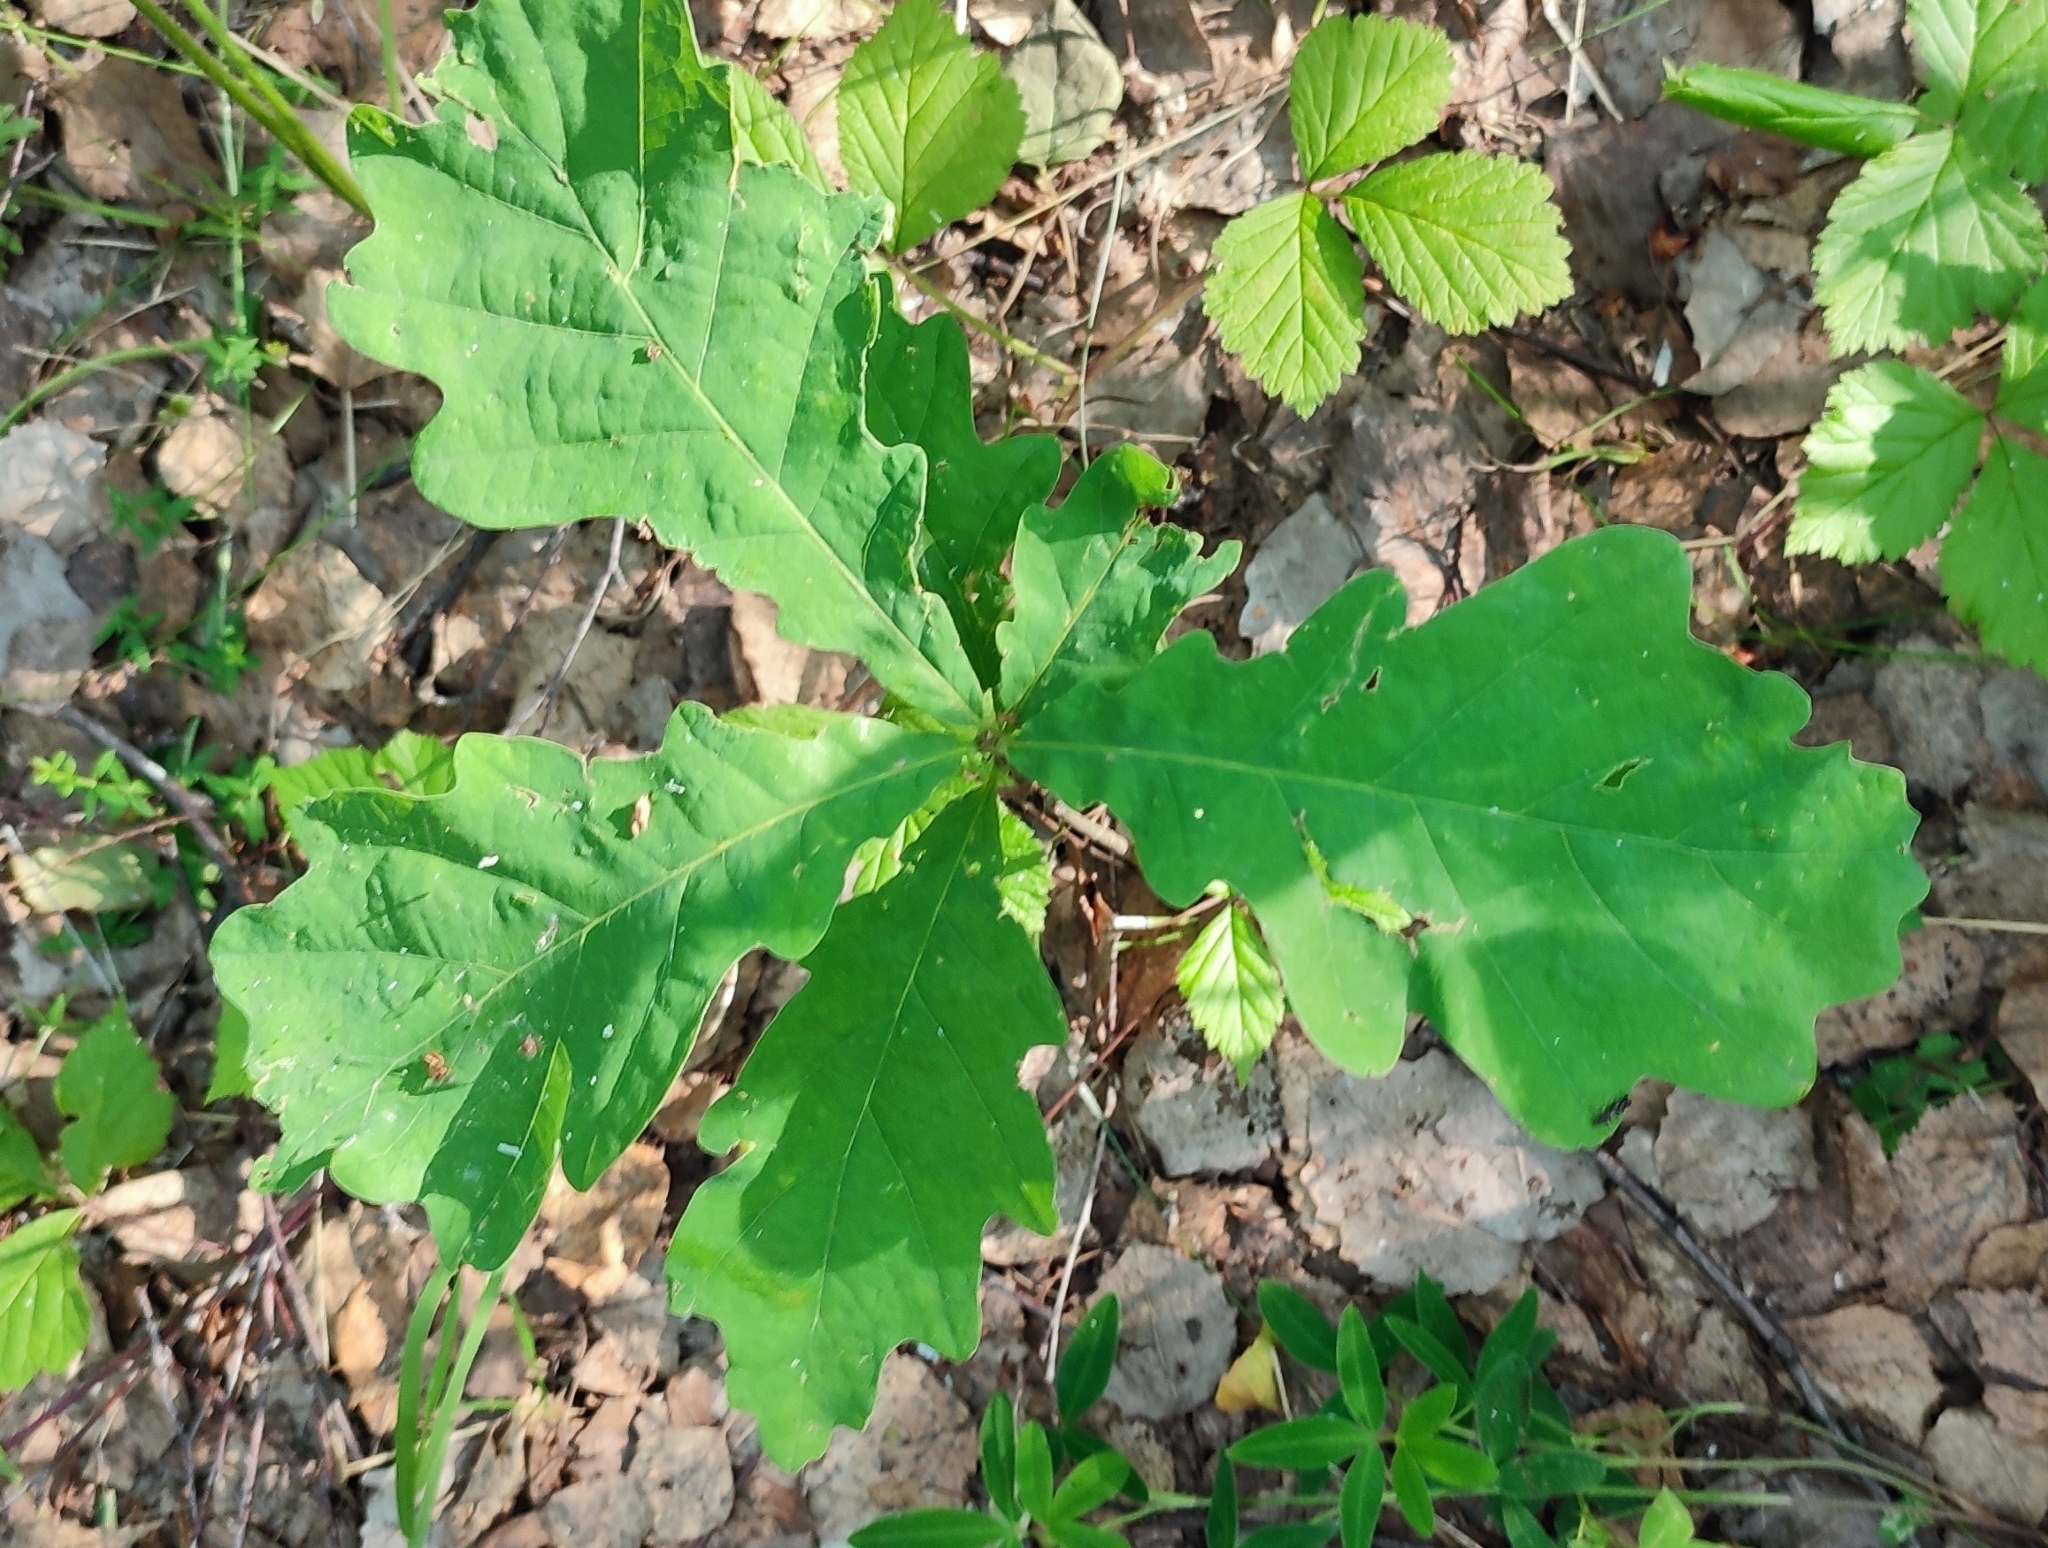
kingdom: Plantae
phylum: Tracheophyta
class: Magnoliopsida
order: Fagales
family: Fagaceae
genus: Quercus
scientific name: Quercus robur
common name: Pedunculate oak
